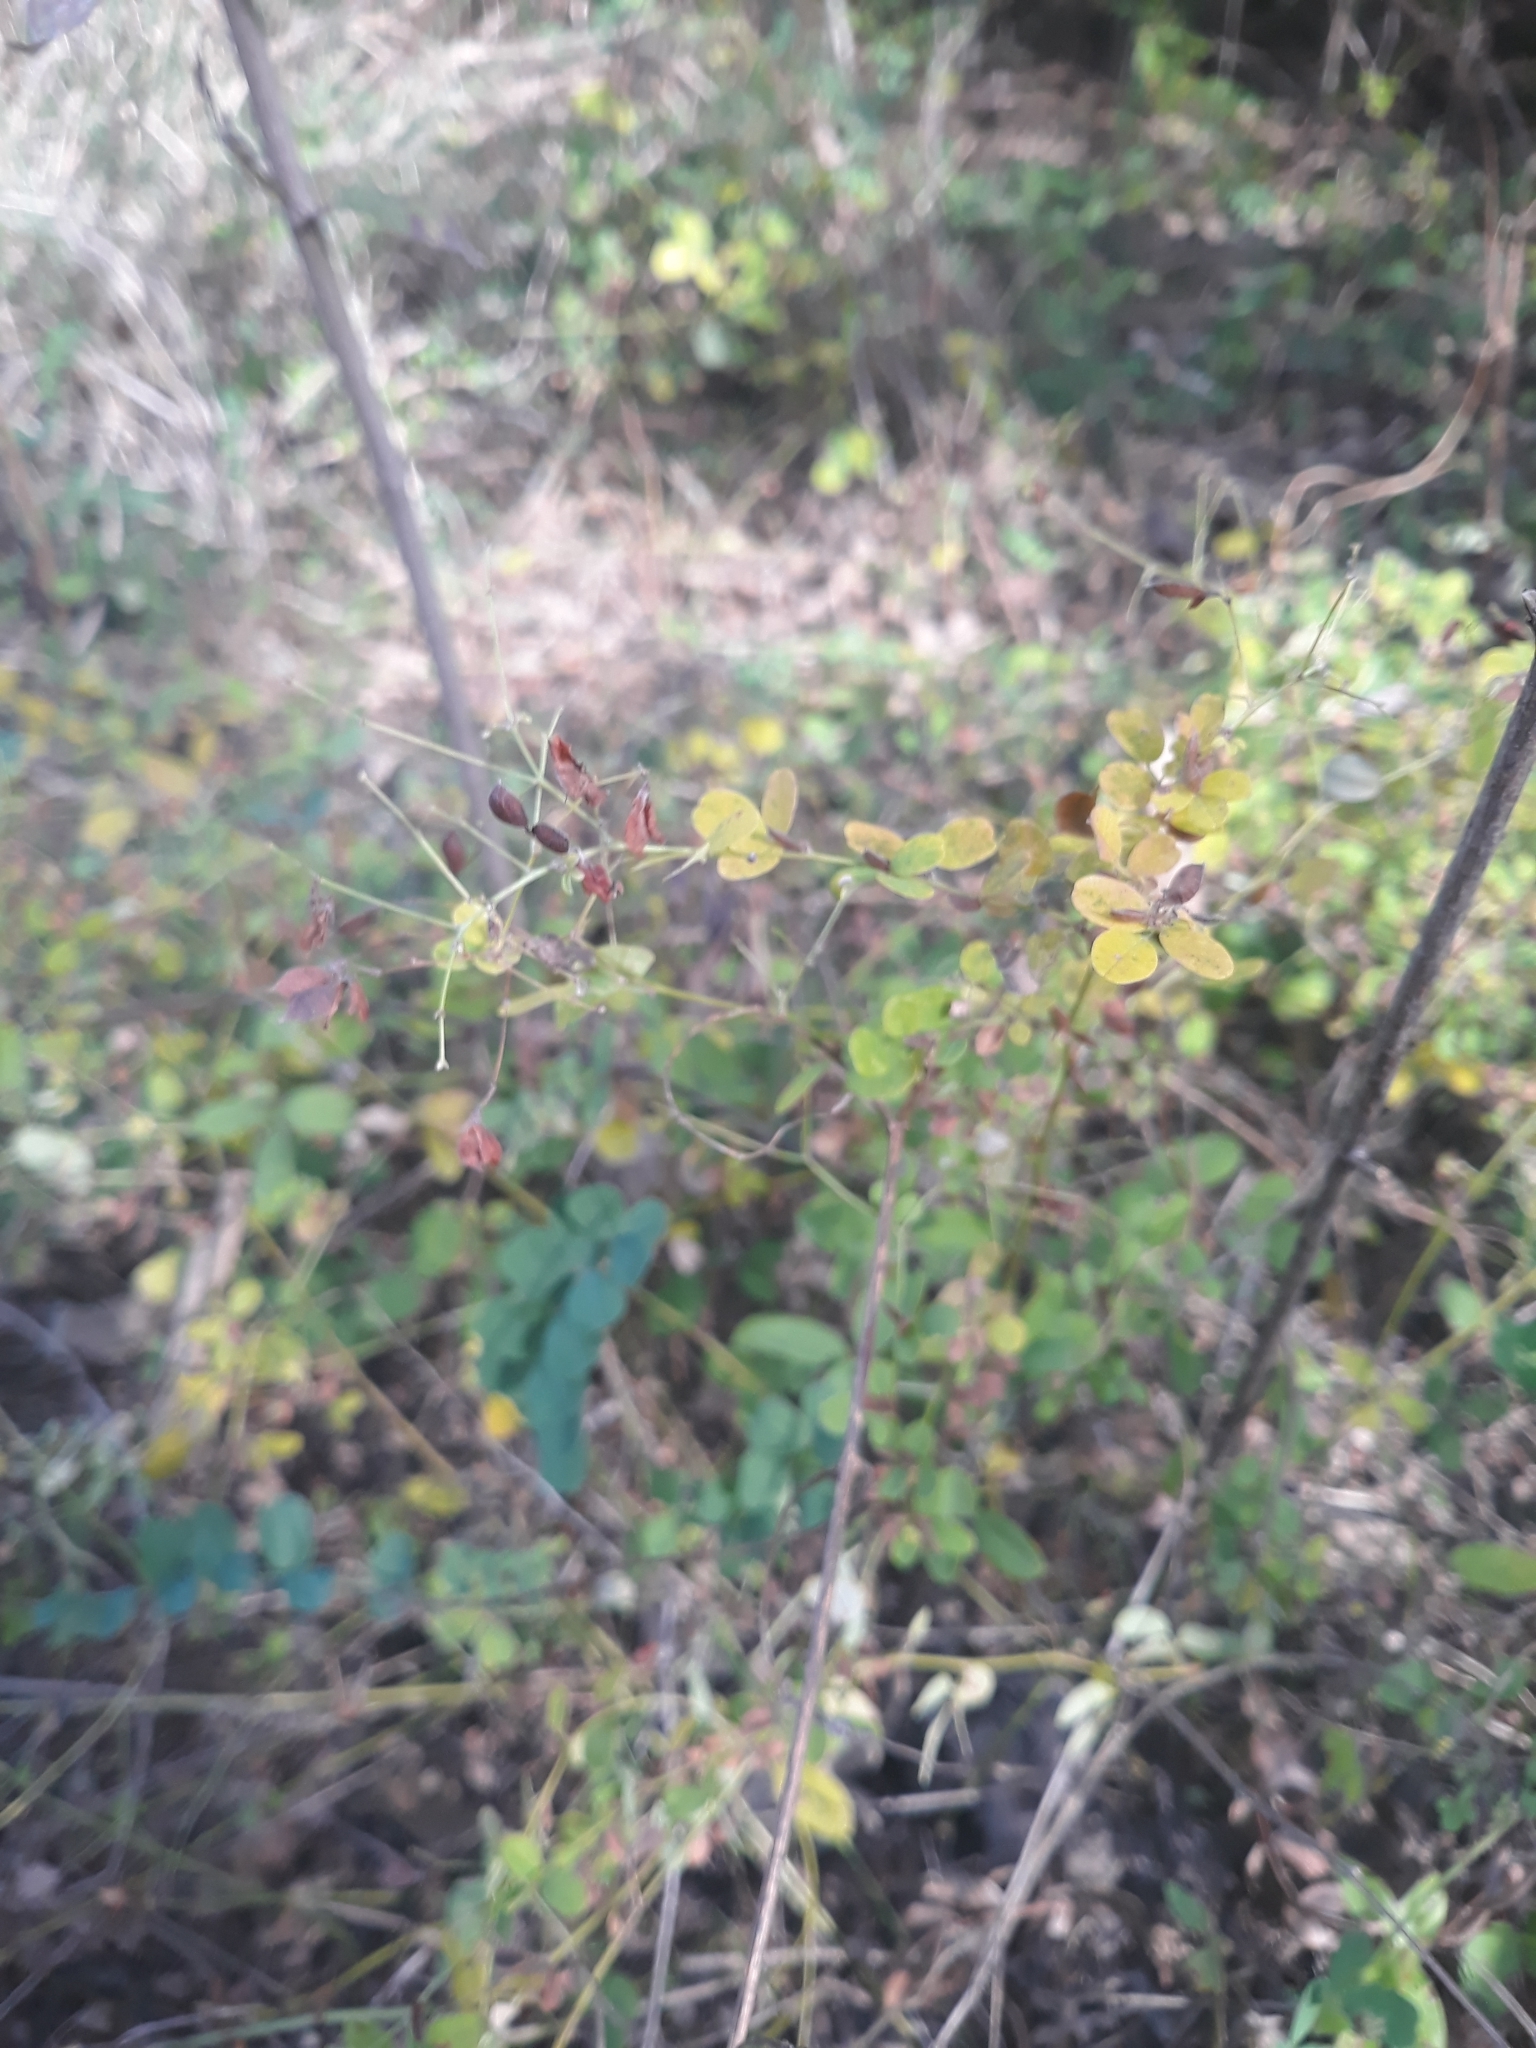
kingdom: Plantae
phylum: Tracheophyta
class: Magnoliopsida
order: Fabales
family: Fabaceae
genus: Lespedeza
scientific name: Lespedeza
